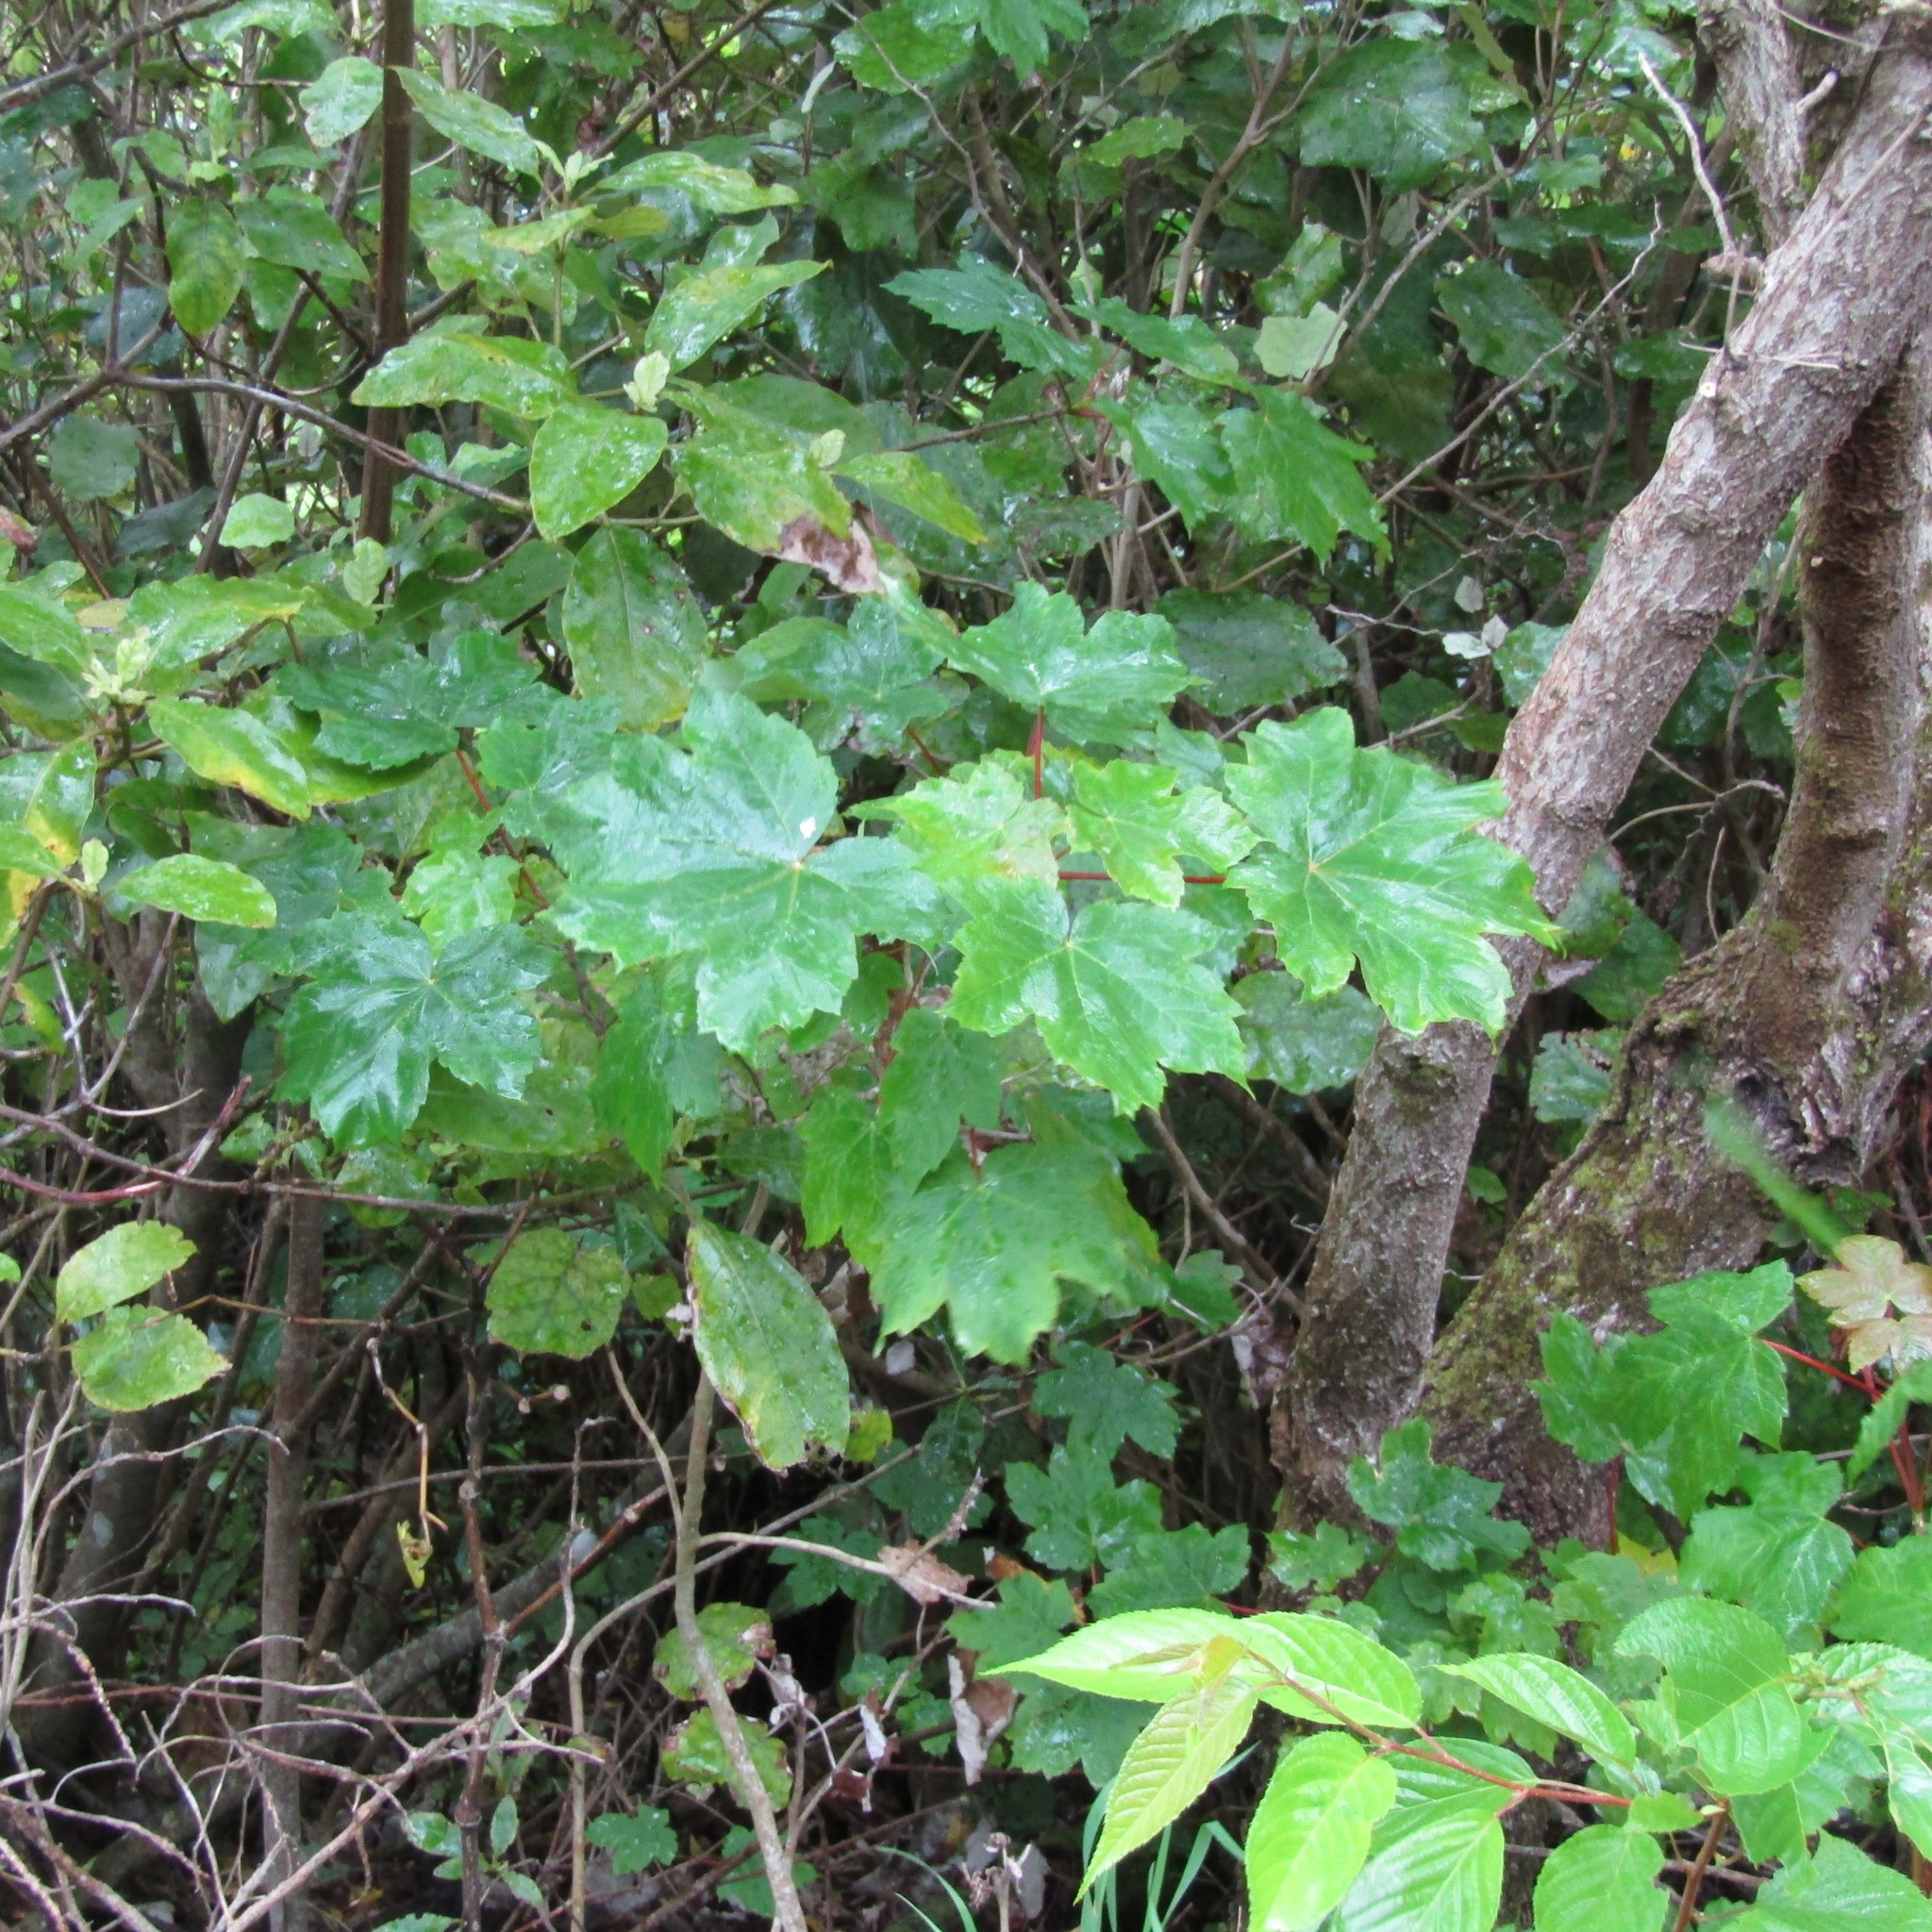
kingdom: Plantae
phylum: Tracheophyta
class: Magnoliopsida
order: Sapindales
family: Sapindaceae
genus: Acer
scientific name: Acer pseudoplatanus
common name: Sycamore
